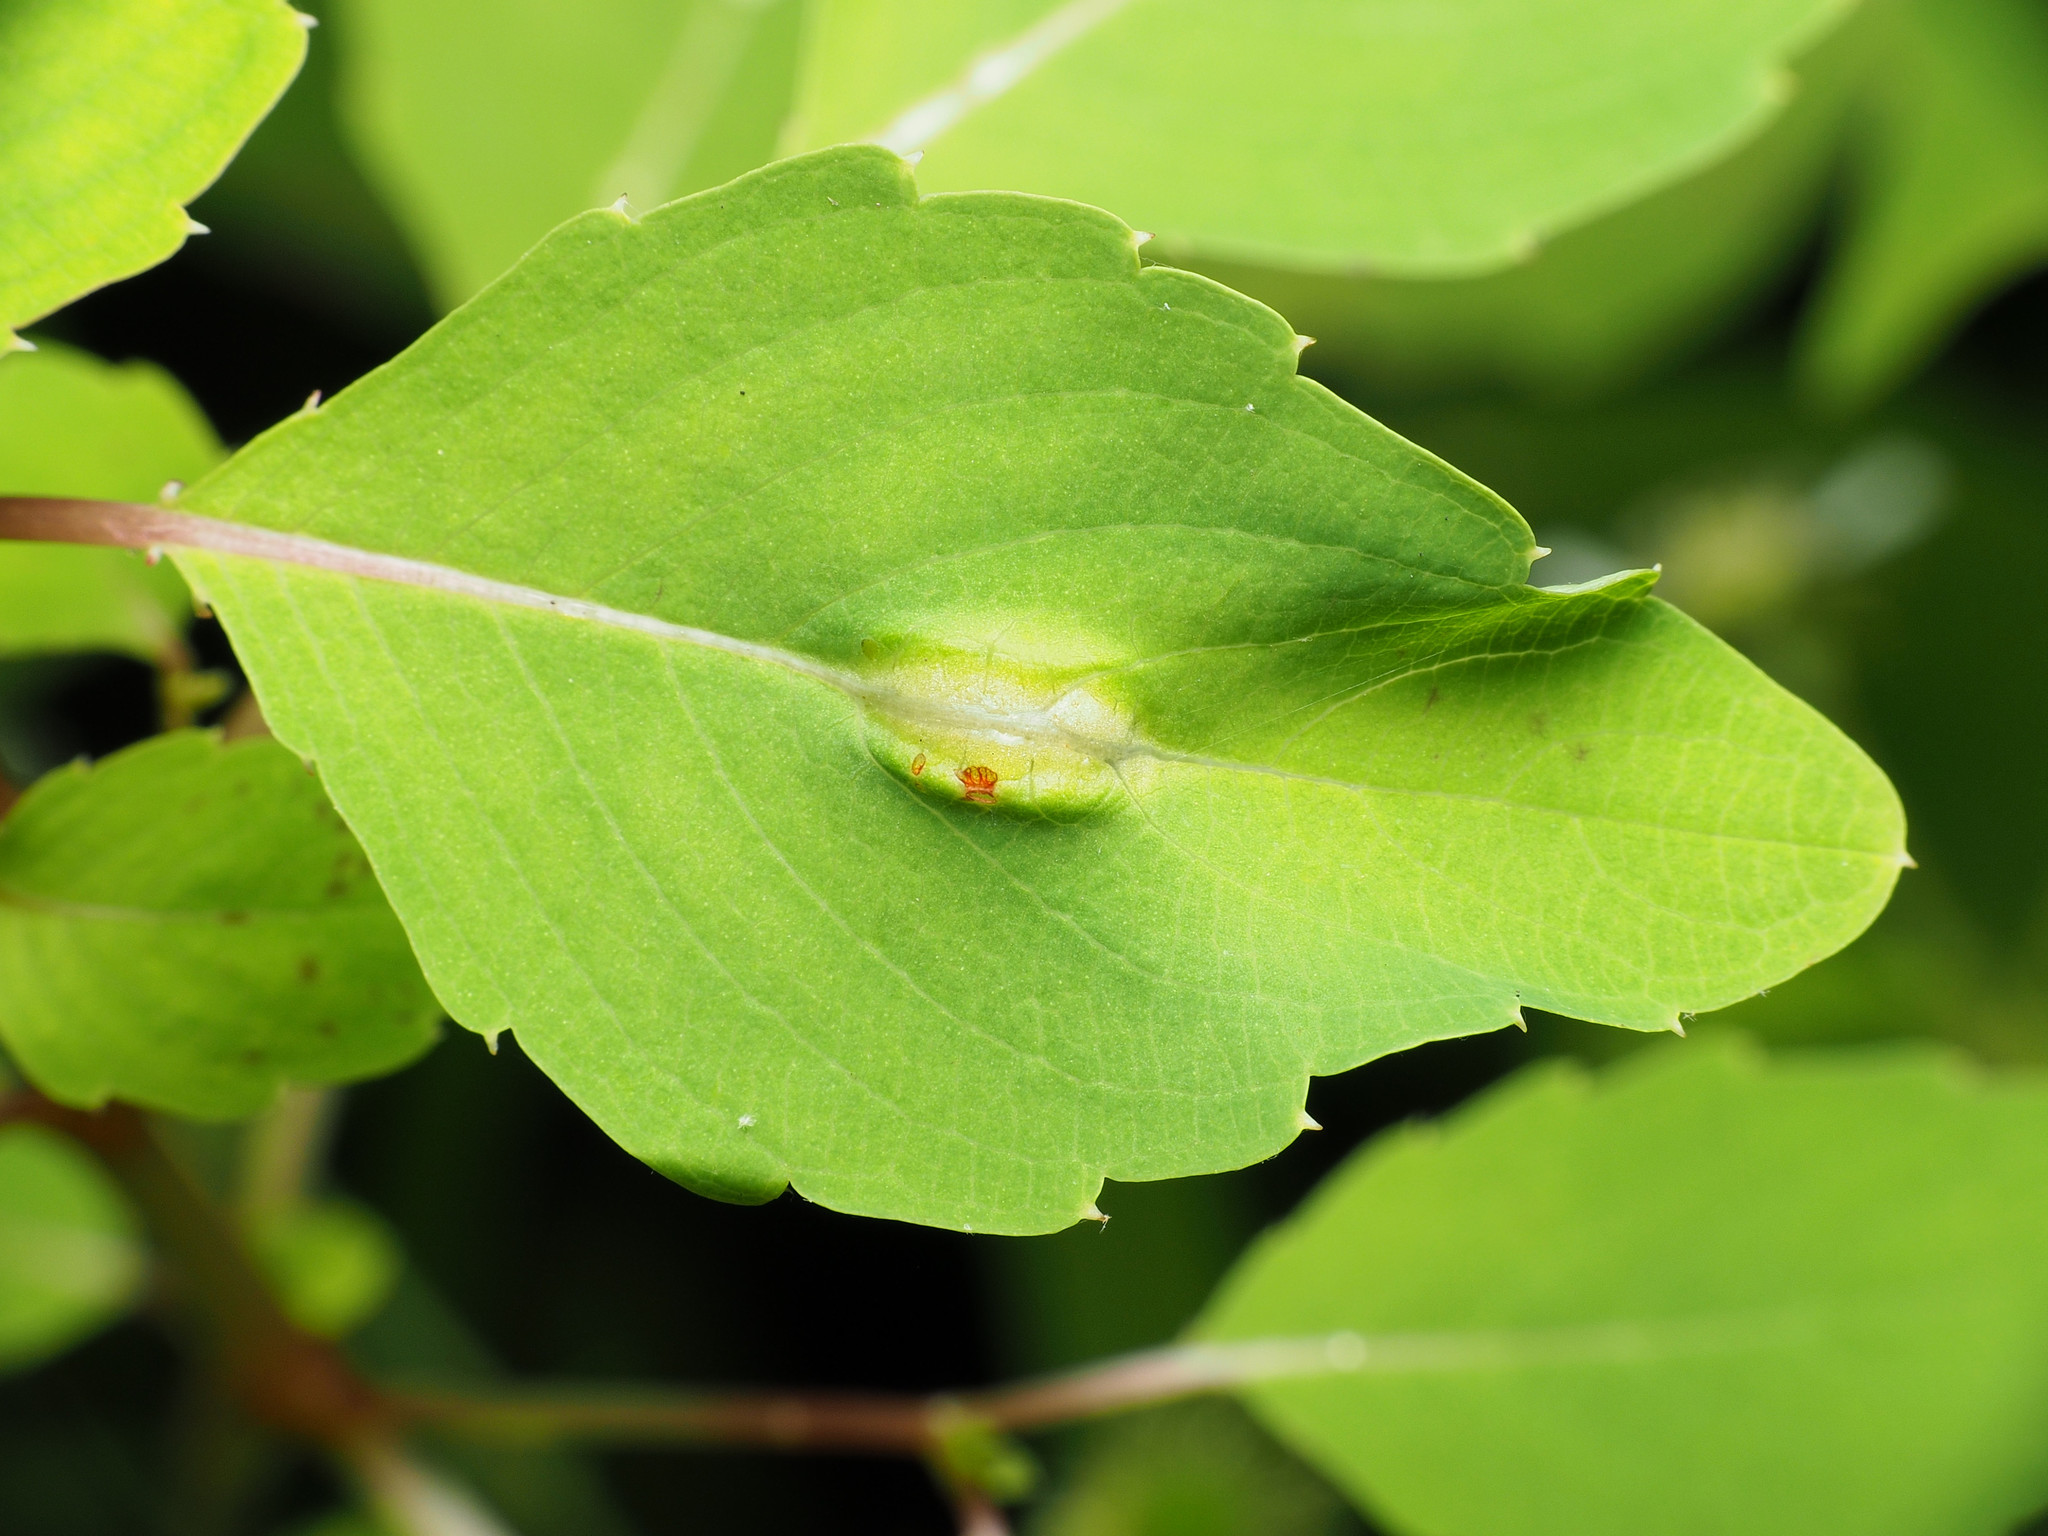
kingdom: Animalia
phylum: Arthropoda
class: Insecta
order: Diptera
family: Cecidomyiidae
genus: Neolasioptera
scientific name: Neolasioptera impatientifolia
